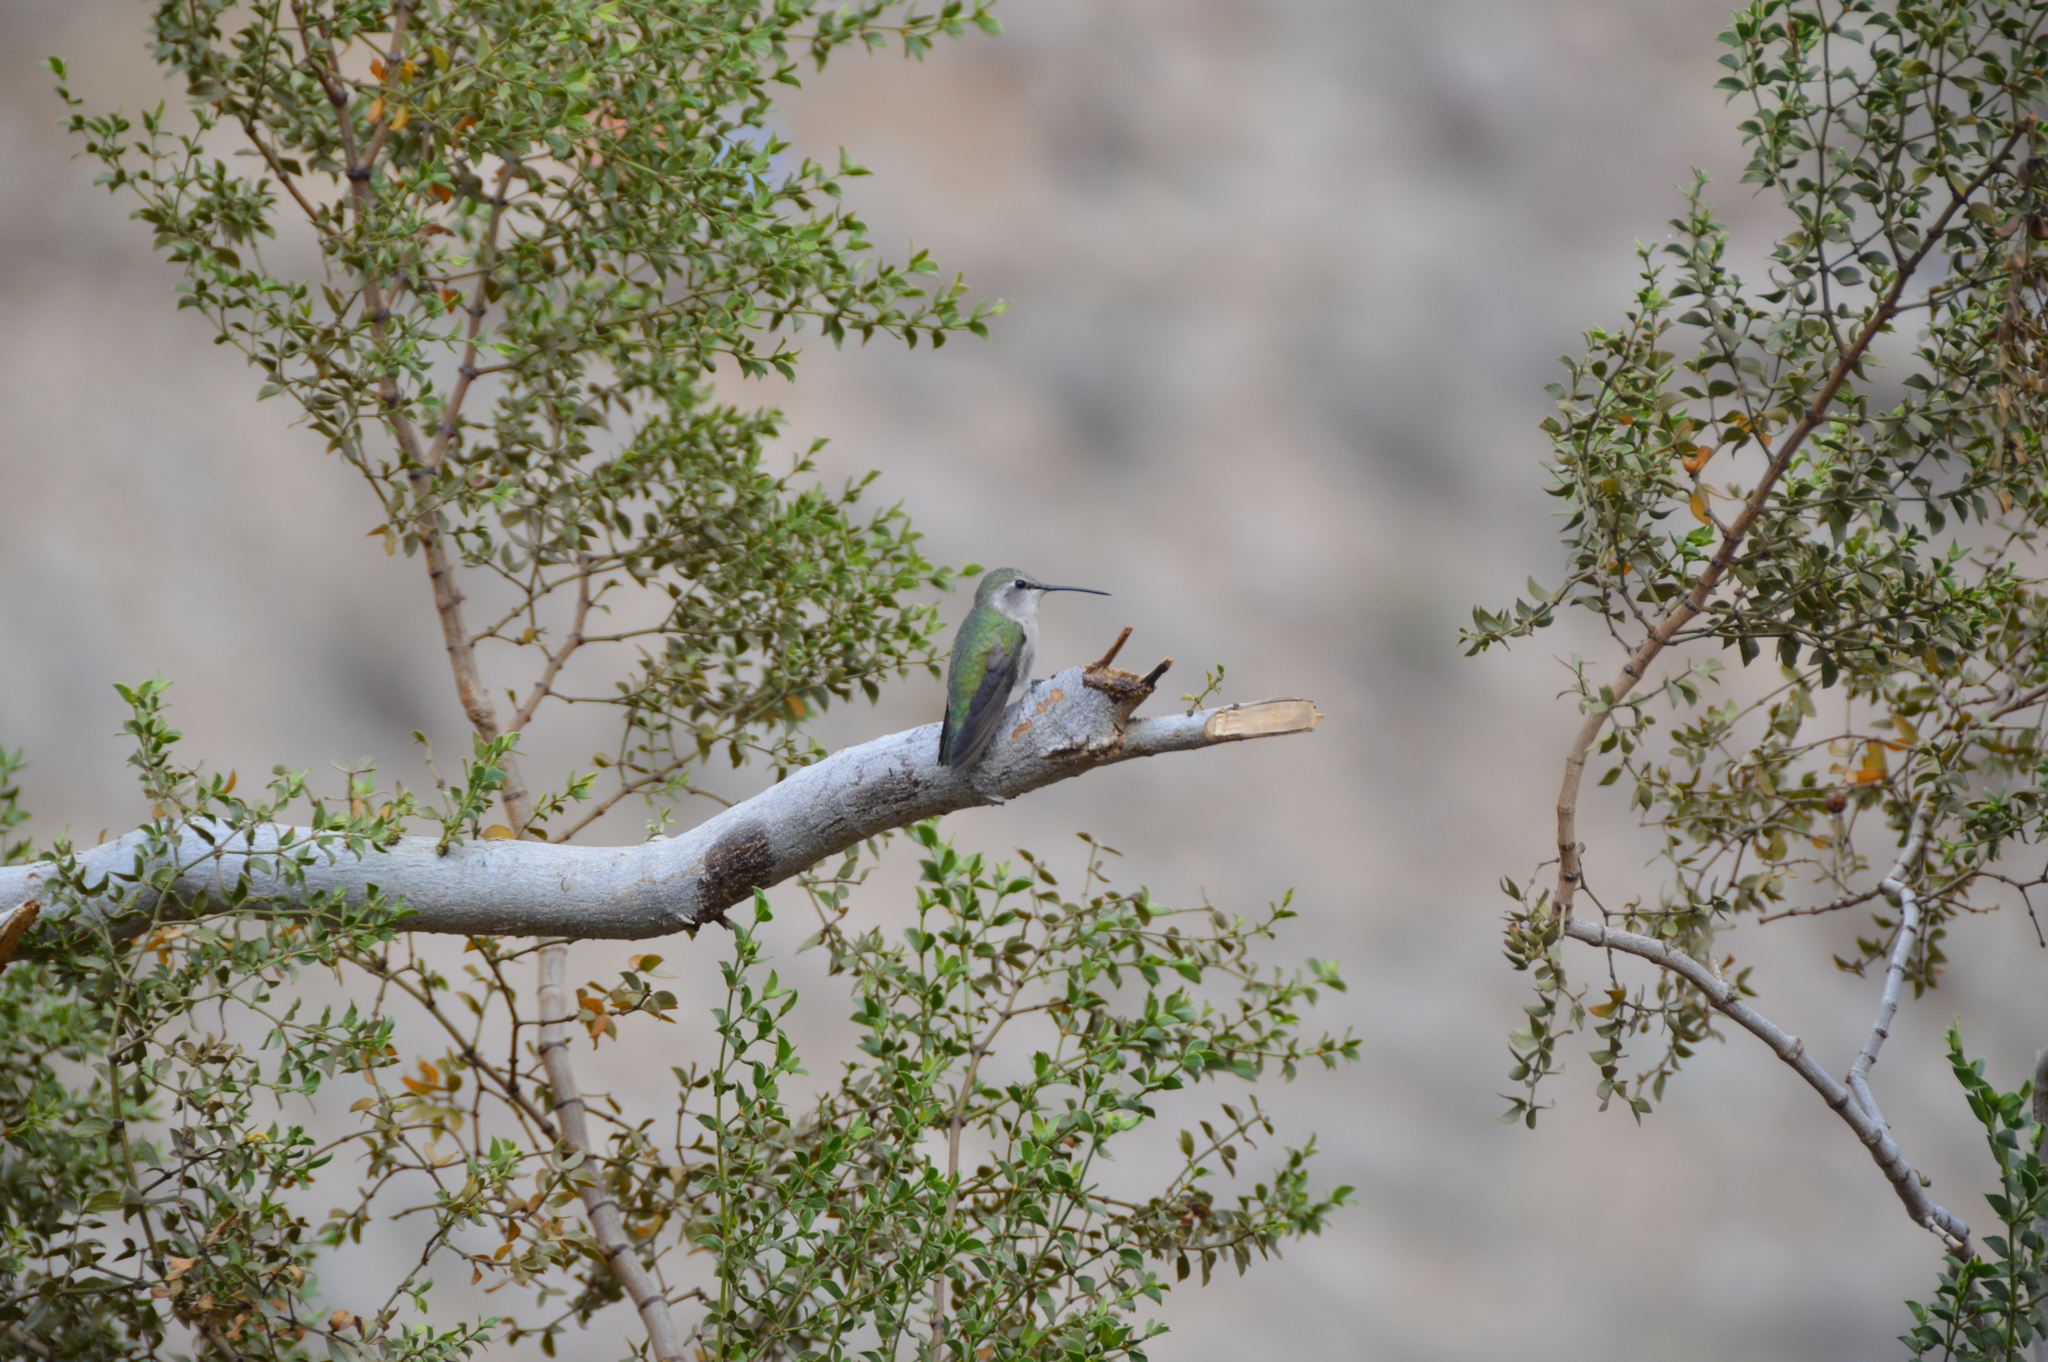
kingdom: Animalia
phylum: Chordata
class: Aves
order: Apodiformes
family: Trochilidae
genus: Calypte
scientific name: Calypte costae
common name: Costa's hummingbird
